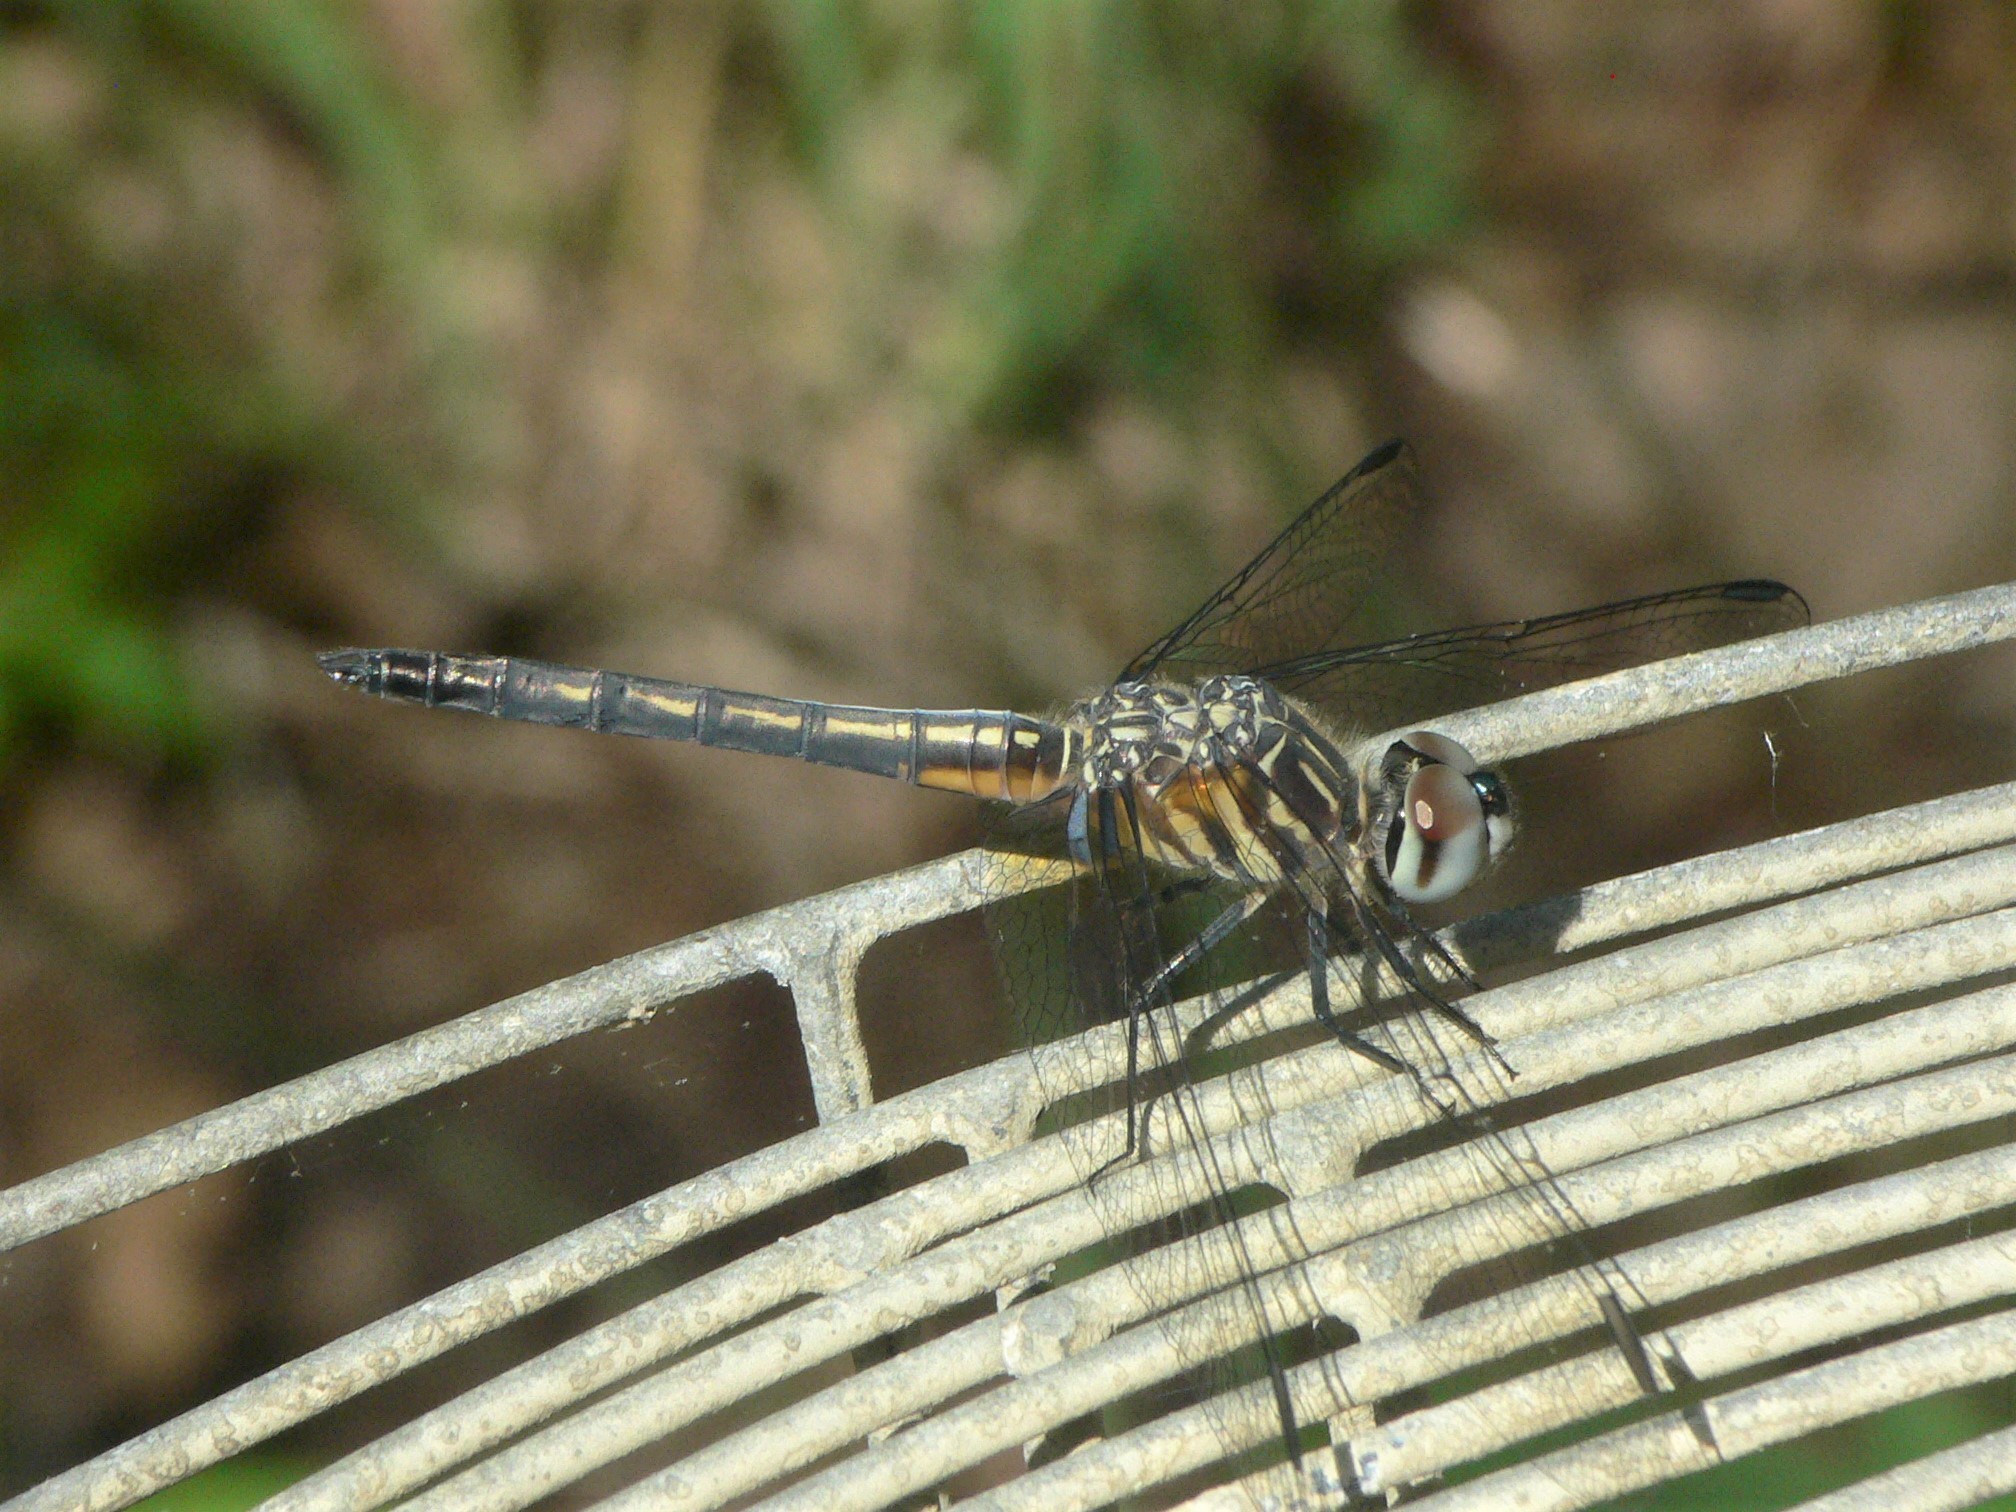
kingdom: Animalia
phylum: Arthropoda
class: Insecta
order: Odonata
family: Libellulidae
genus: Pachydiplax
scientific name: Pachydiplax longipennis
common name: Blue dasher
